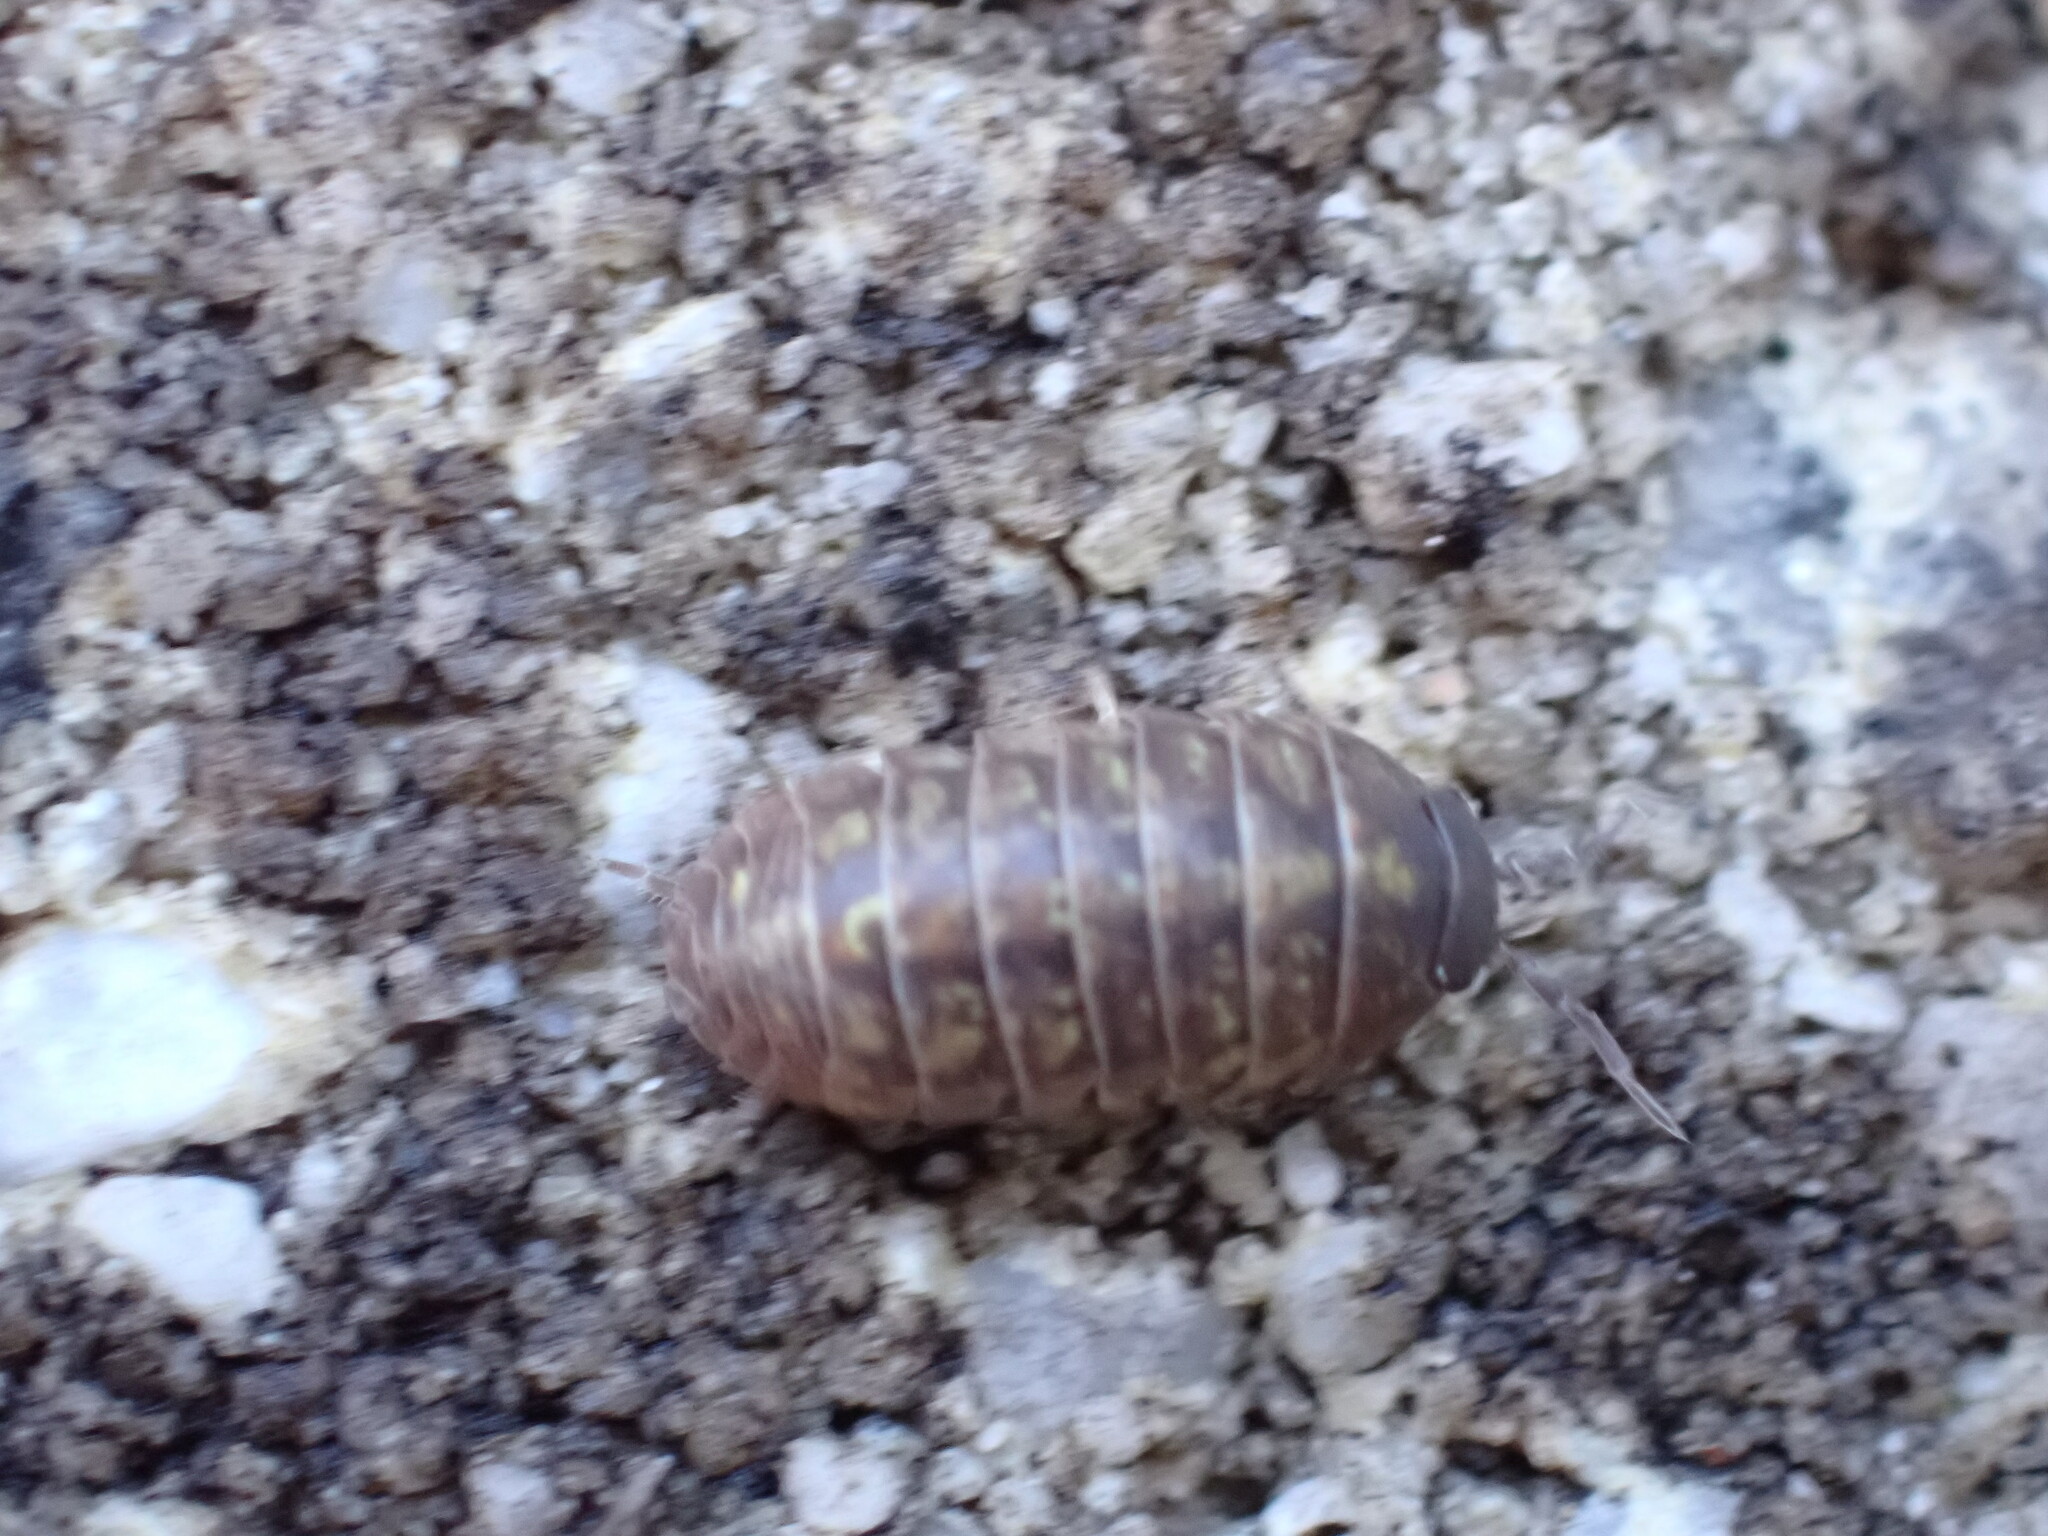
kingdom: Animalia
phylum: Arthropoda
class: Malacostraca
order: Isopoda
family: Armadillidiidae
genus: Armadillidium
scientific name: Armadillidium vulgare
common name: Common pill woodlouse
